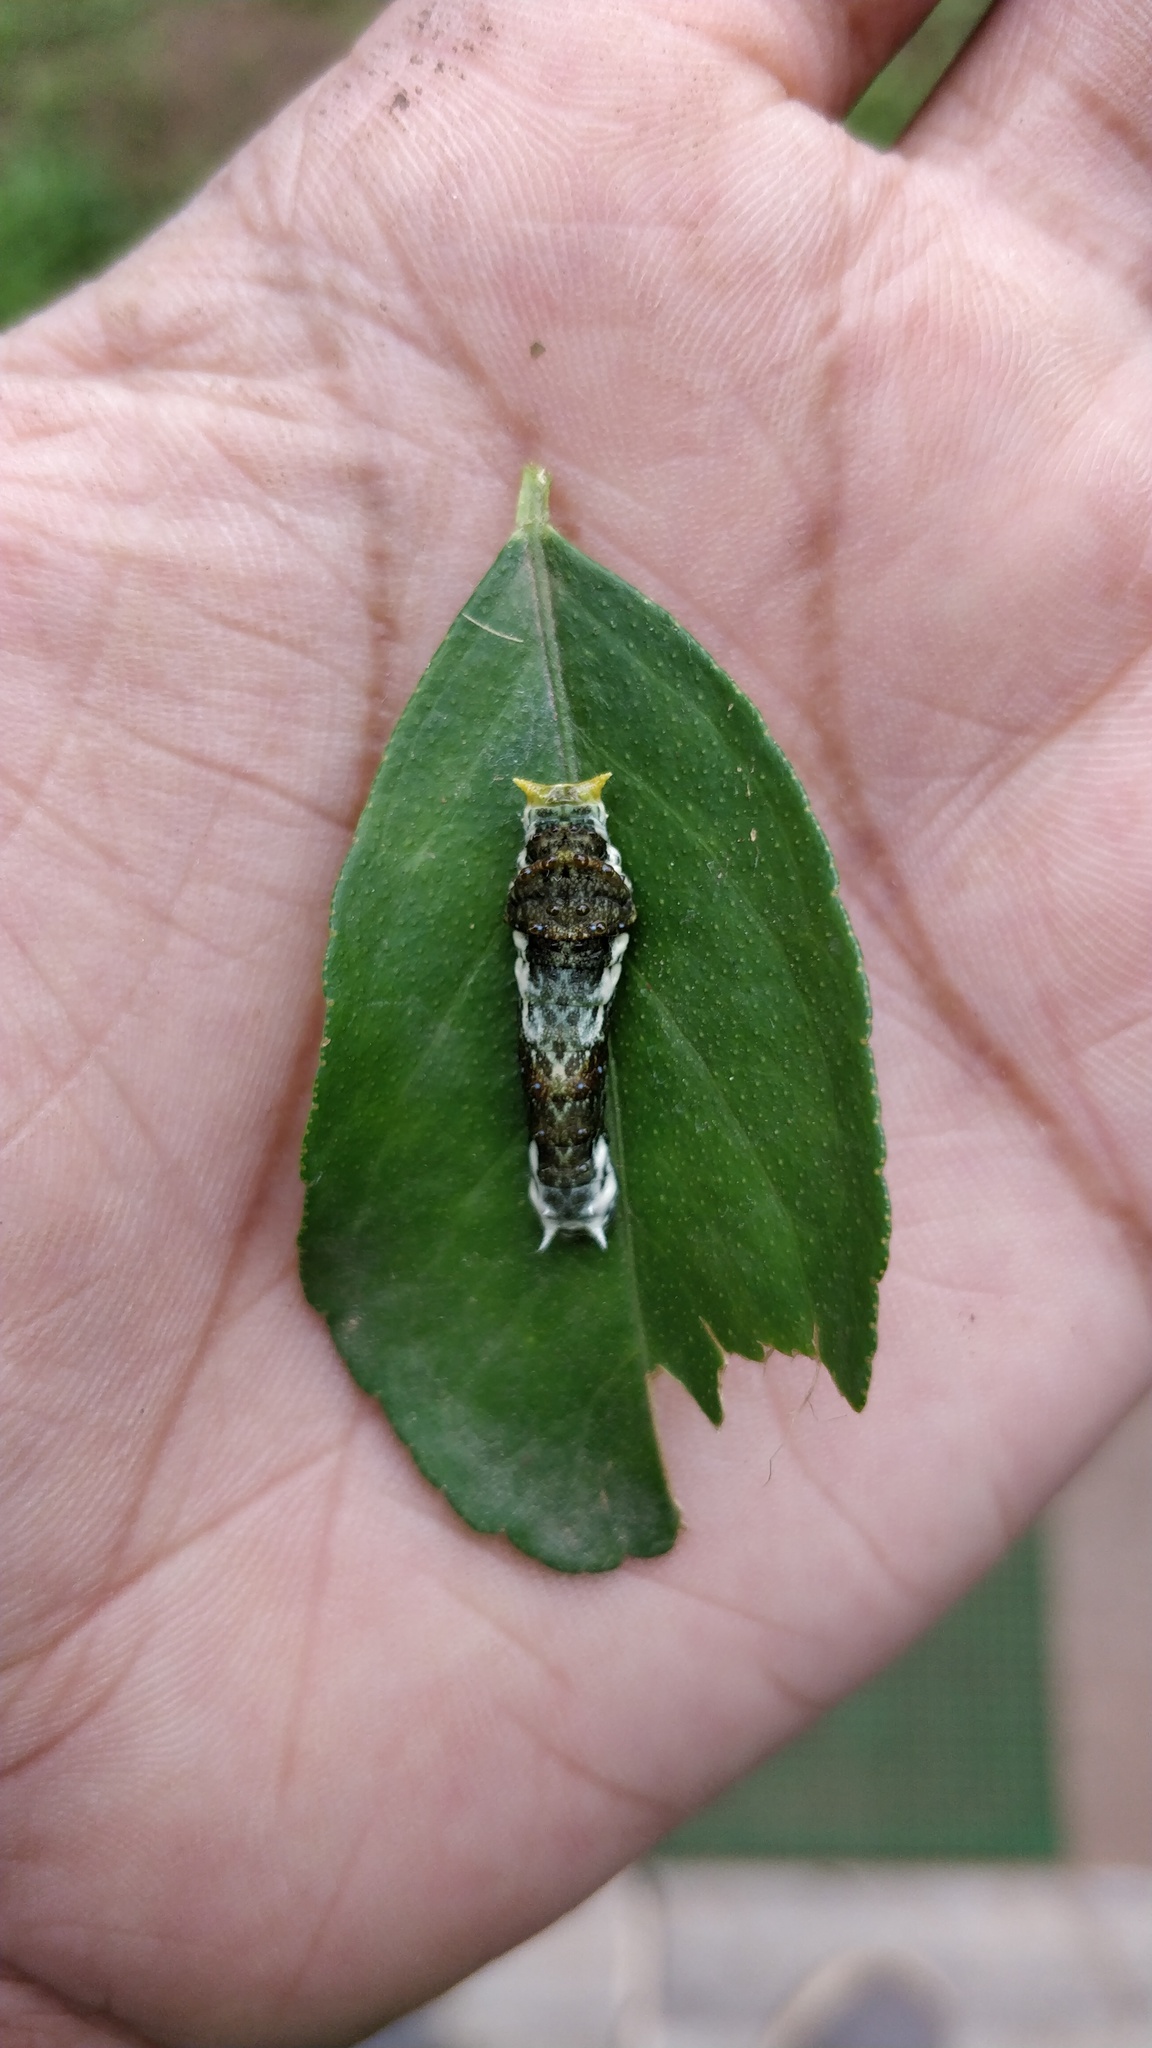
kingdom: Animalia
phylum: Arthropoda
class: Insecta
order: Lepidoptera
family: Papilionidae
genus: Papilio
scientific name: Papilio demoleus
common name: Lime butterfly
